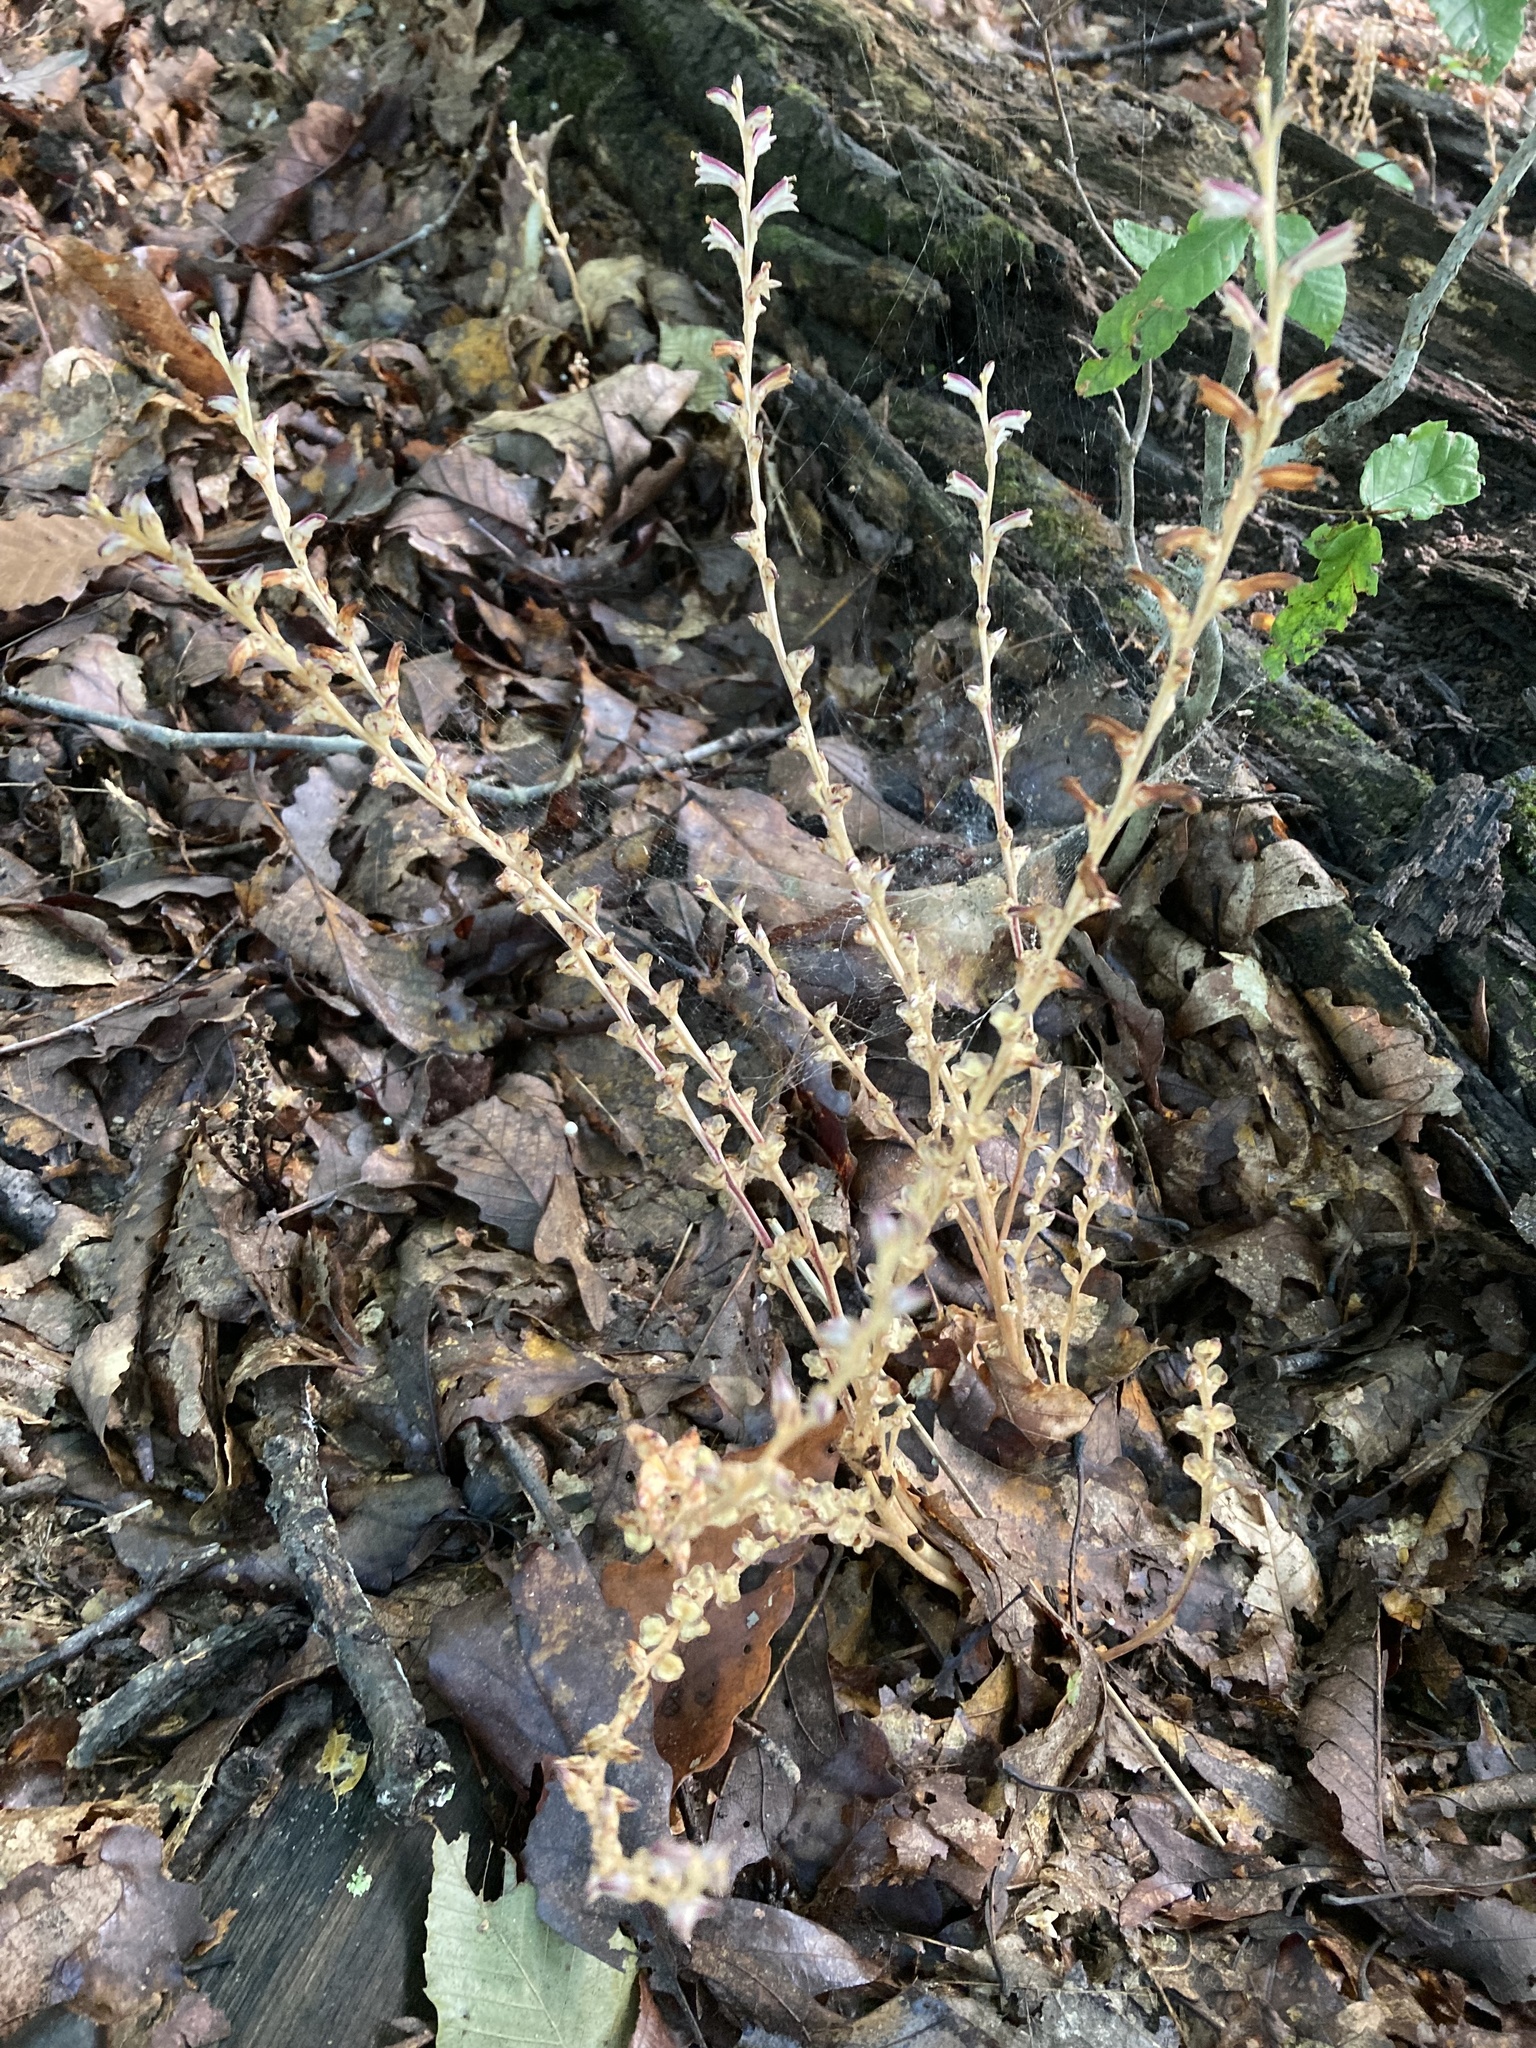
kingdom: Plantae
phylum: Tracheophyta
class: Magnoliopsida
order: Lamiales
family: Orobanchaceae
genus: Epifagus
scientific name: Epifagus virginiana
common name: Beechdrops
